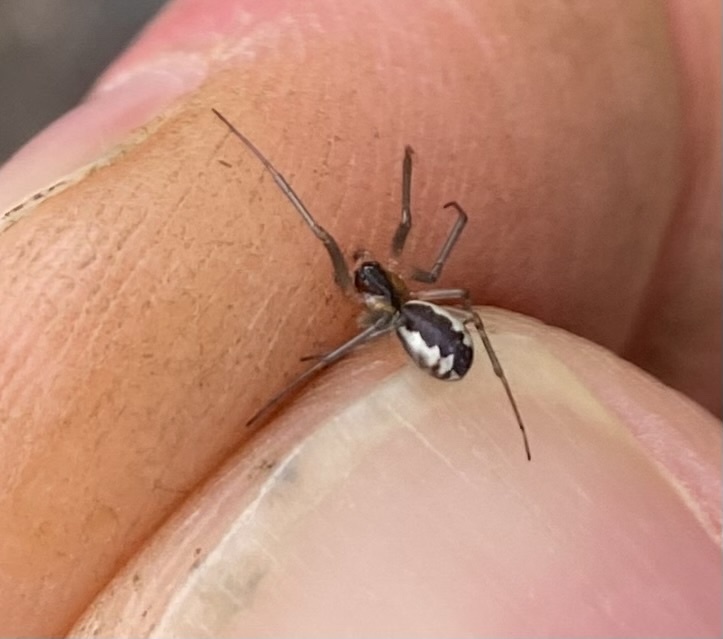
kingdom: Animalia
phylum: Arthropoda
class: Arachnida
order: Araneae
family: Linyphiidae
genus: Neriene
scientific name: Neriene peltata
